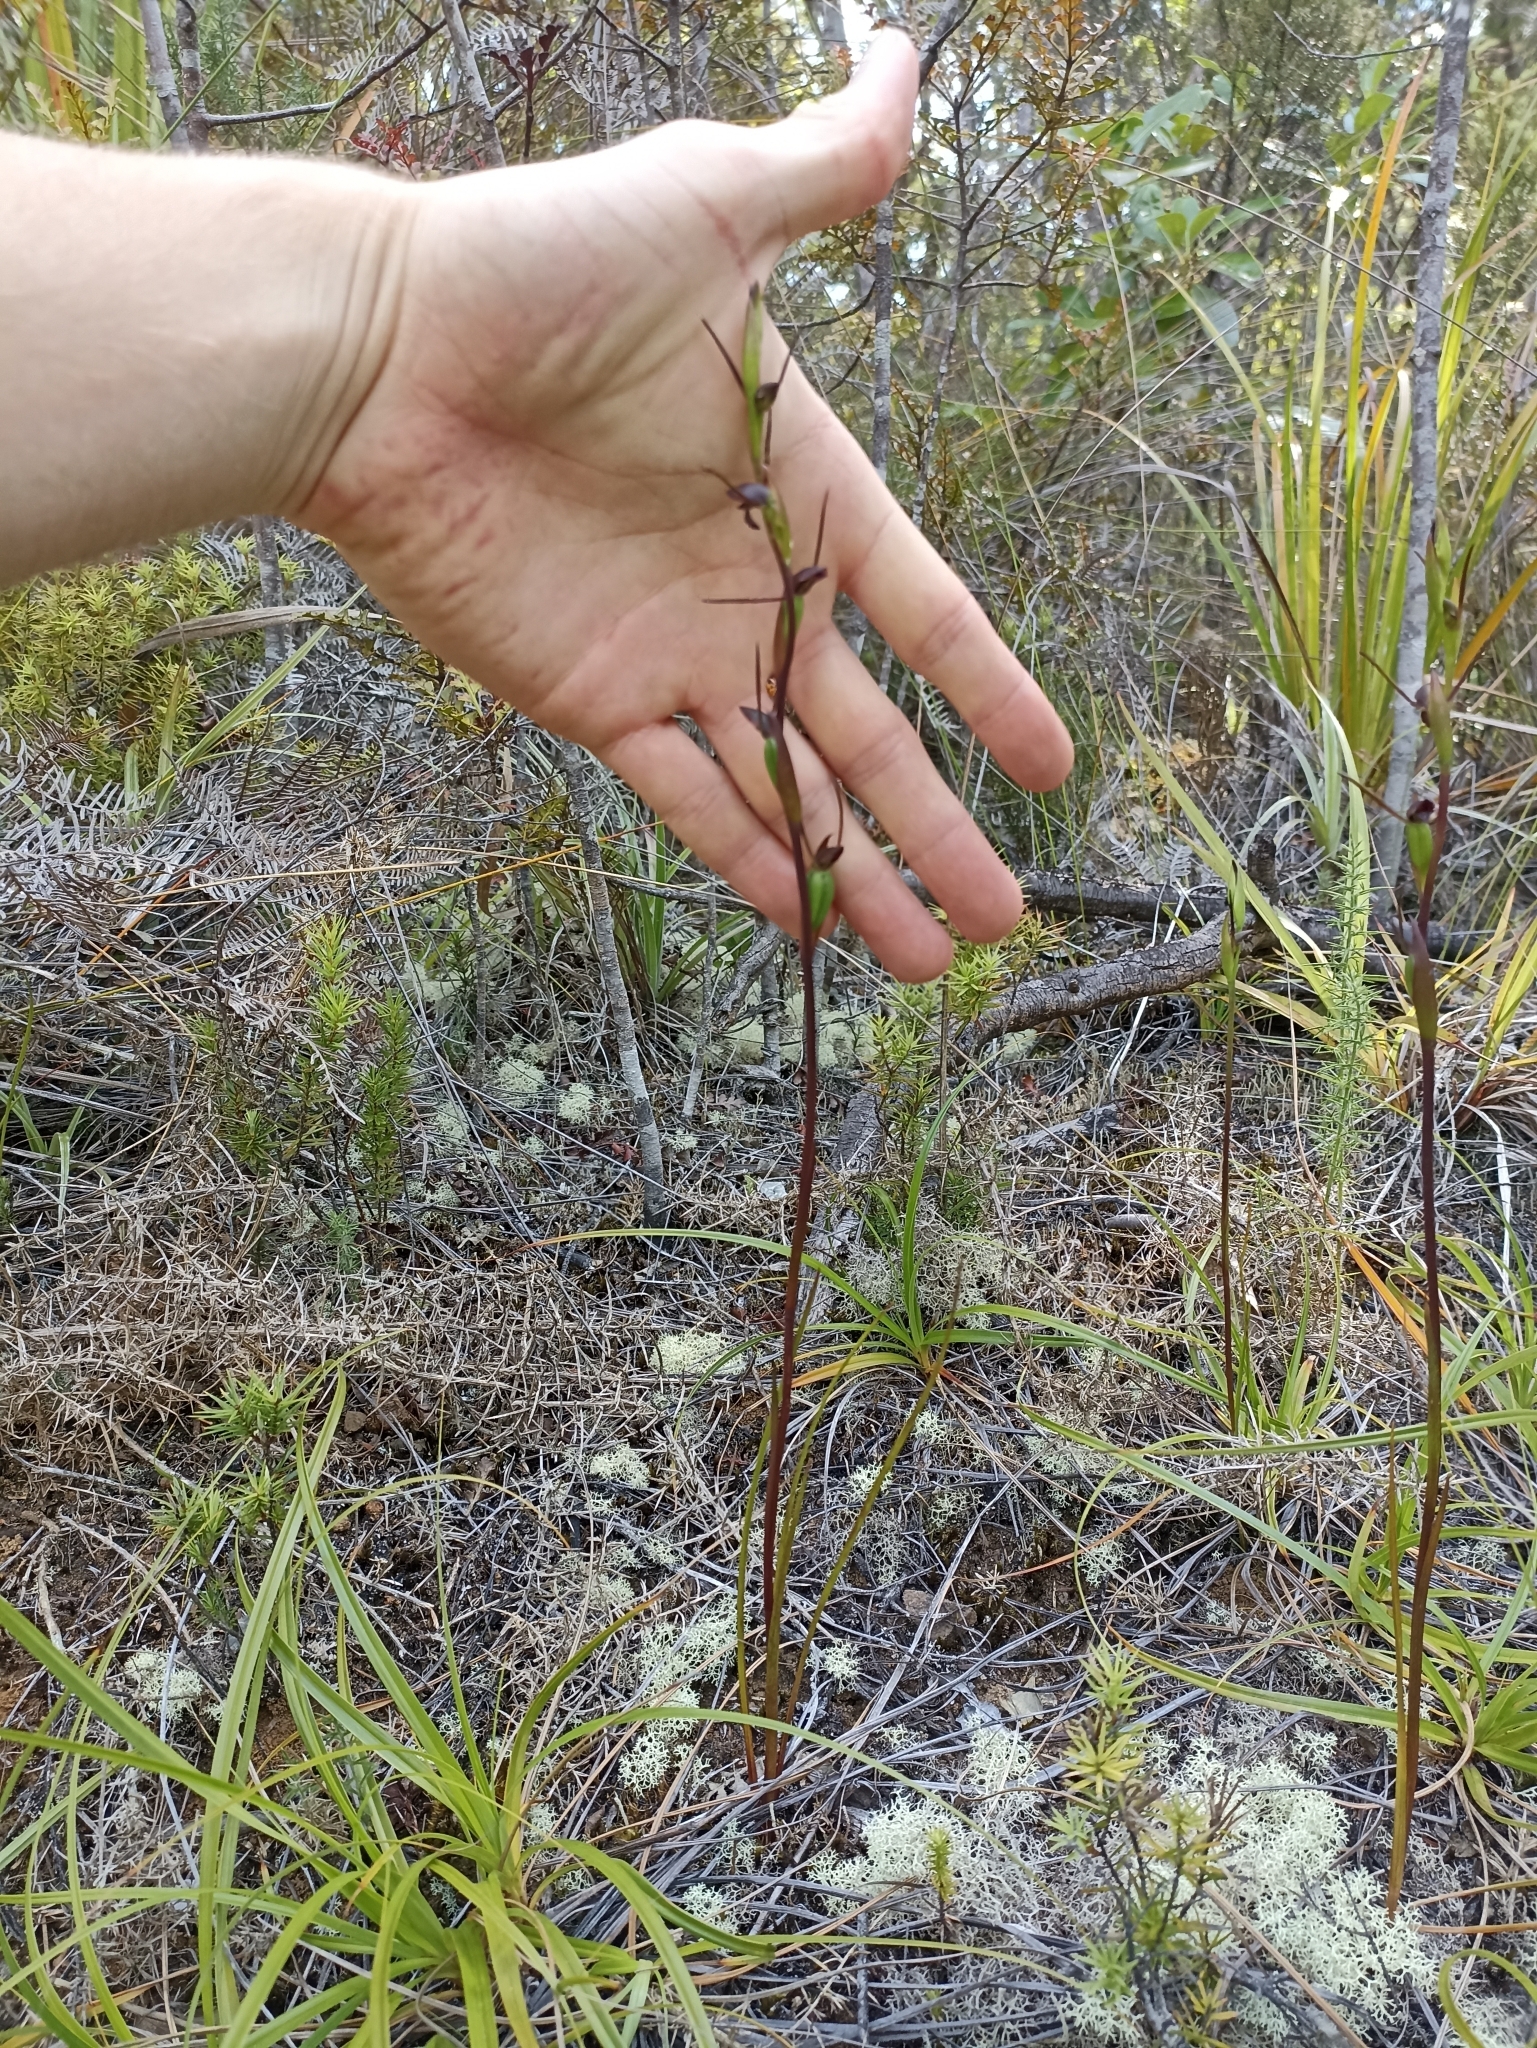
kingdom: Plantae
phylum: Tracheophyta
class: Liliopsida
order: Asparagales
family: Orchidaceae
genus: Orthoceras
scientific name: Orthoceras novae-zeelandiae
